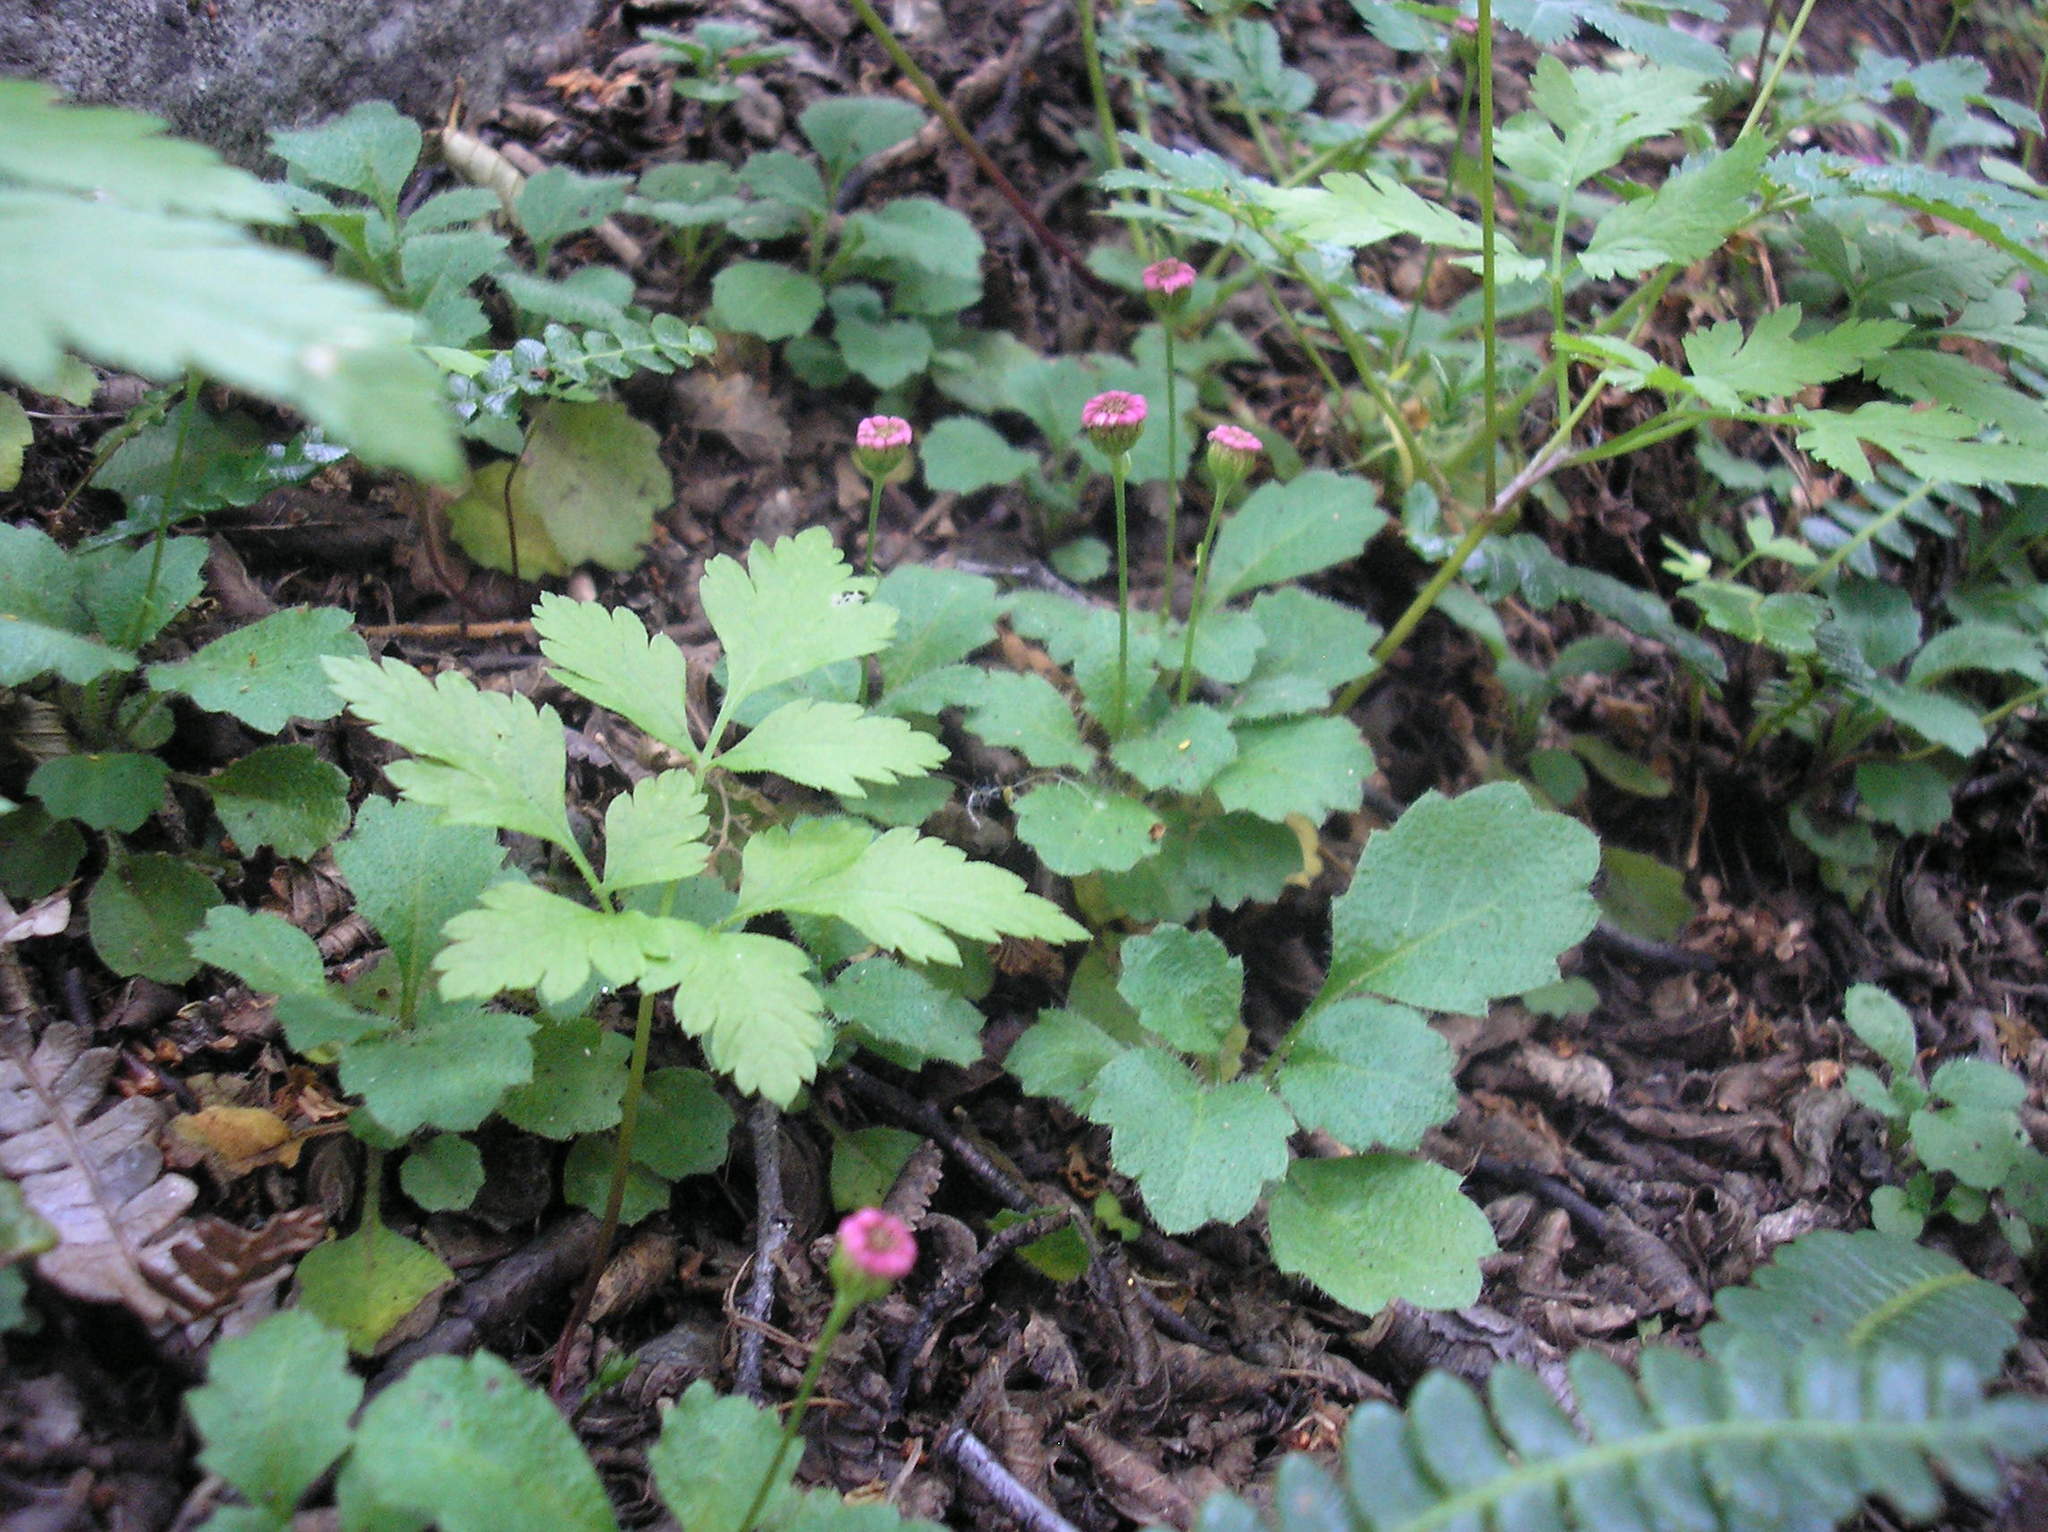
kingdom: Plantae
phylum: Tracheophyta
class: Magnoliopsida
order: Asterales
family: Asteraceae
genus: Lagenophora
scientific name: Lagenophora hariotii
